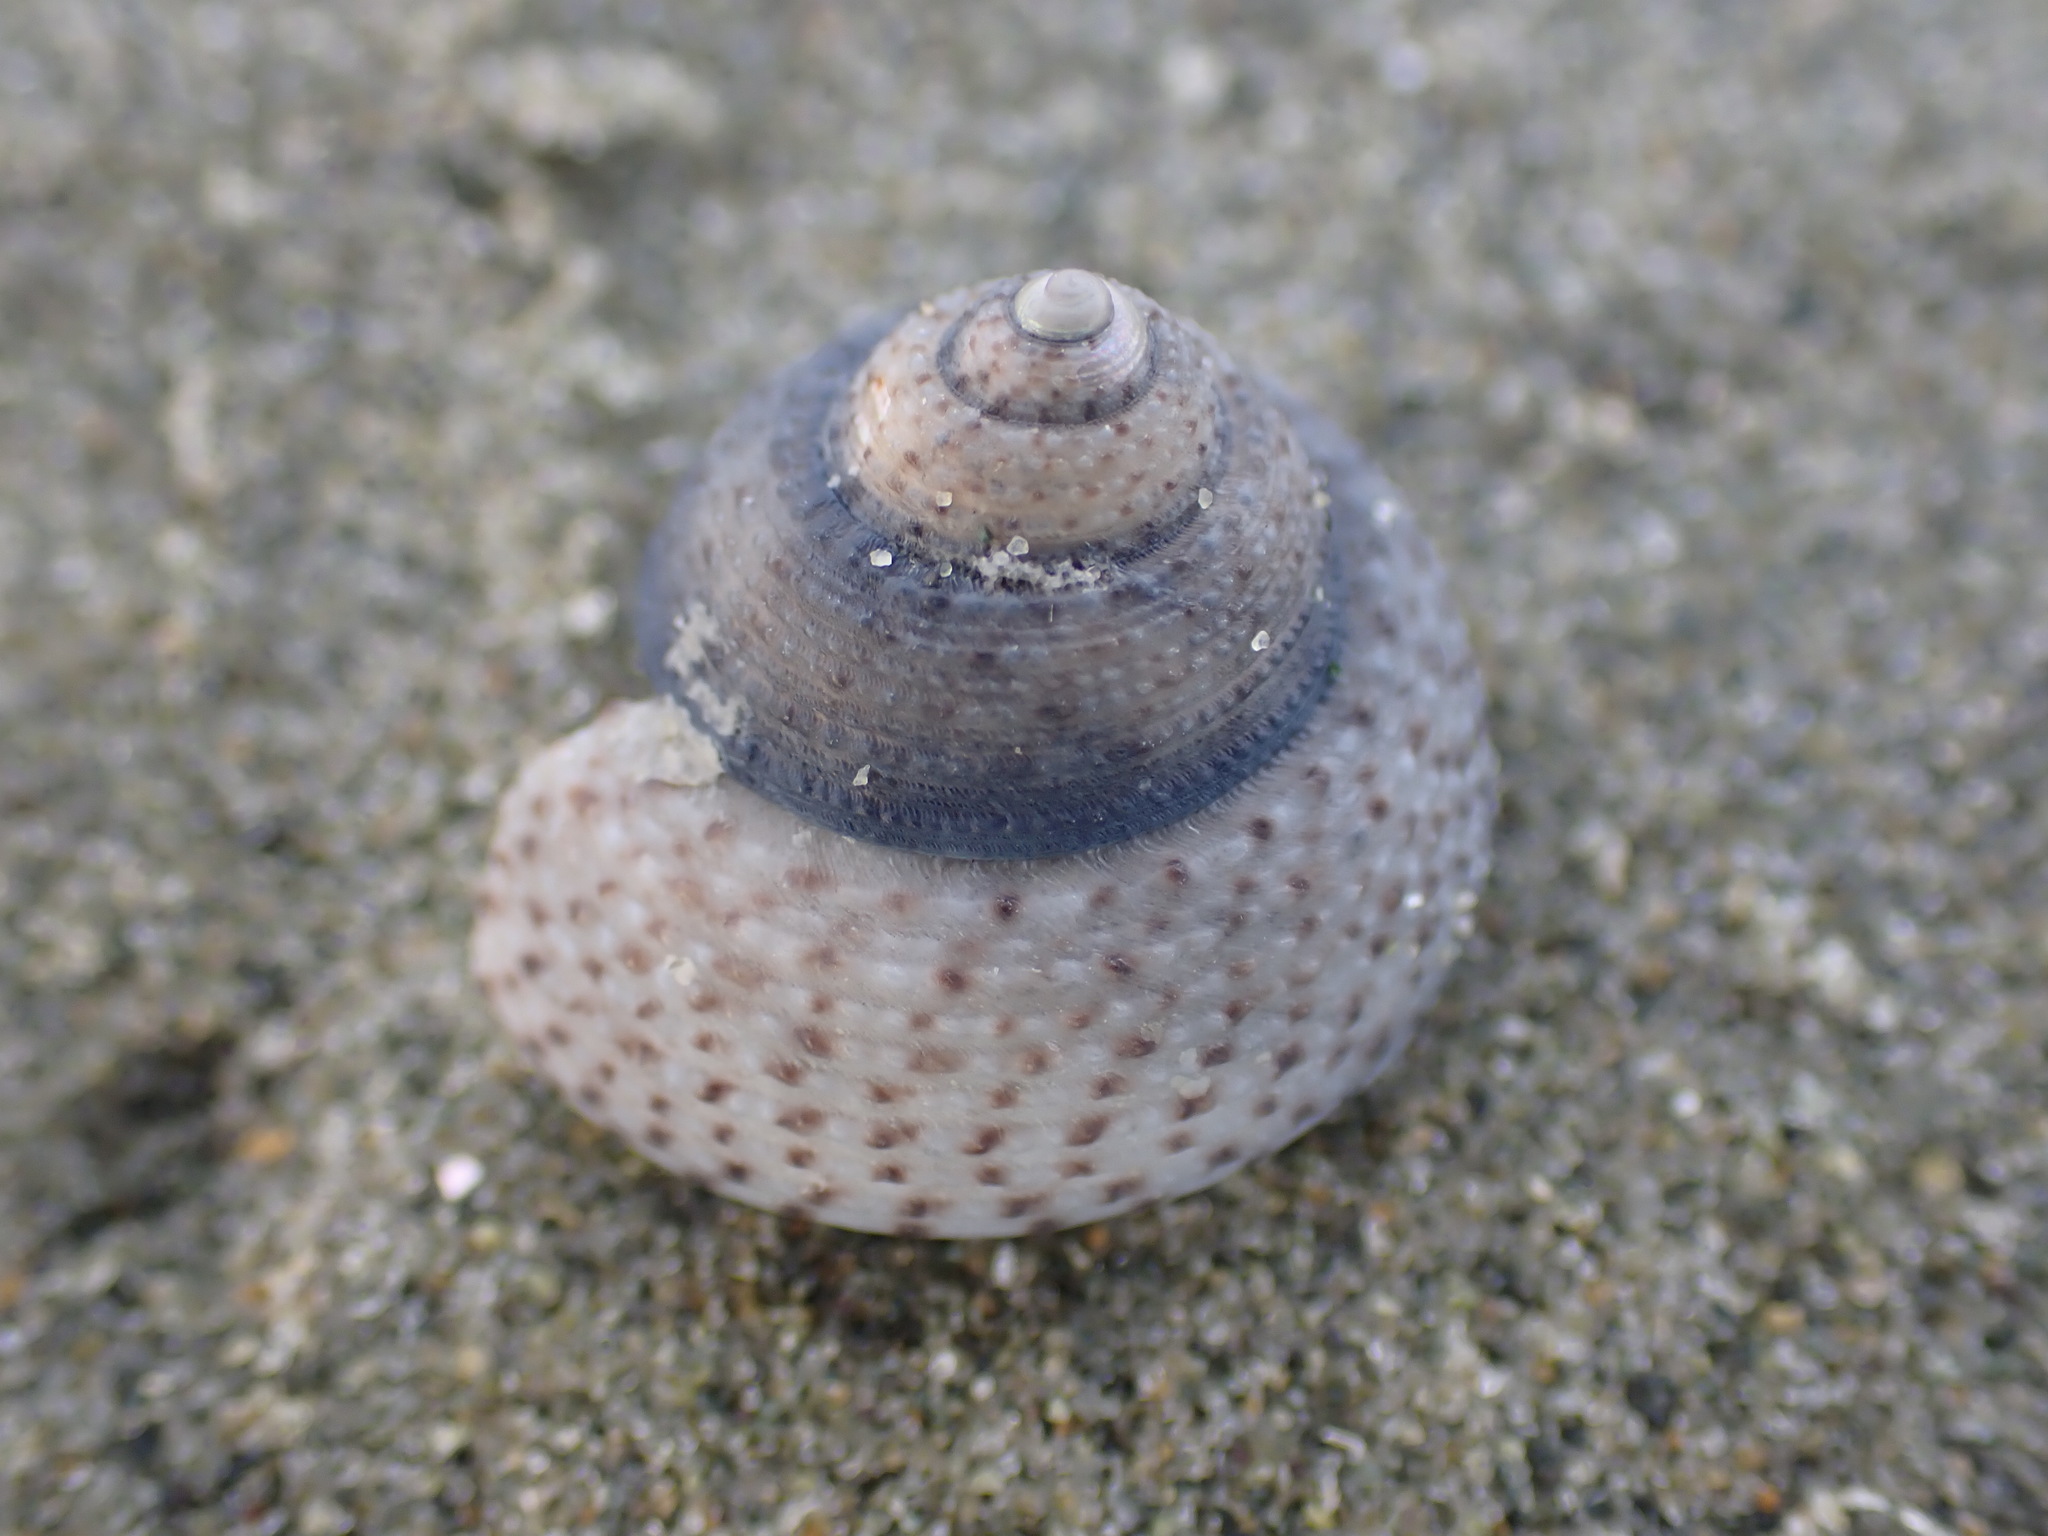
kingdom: Animalia
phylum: Mollusca
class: Gastropoda
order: Trochida
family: Trochidae
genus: Coelotrochus
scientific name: Coelotrochus tiaratus
